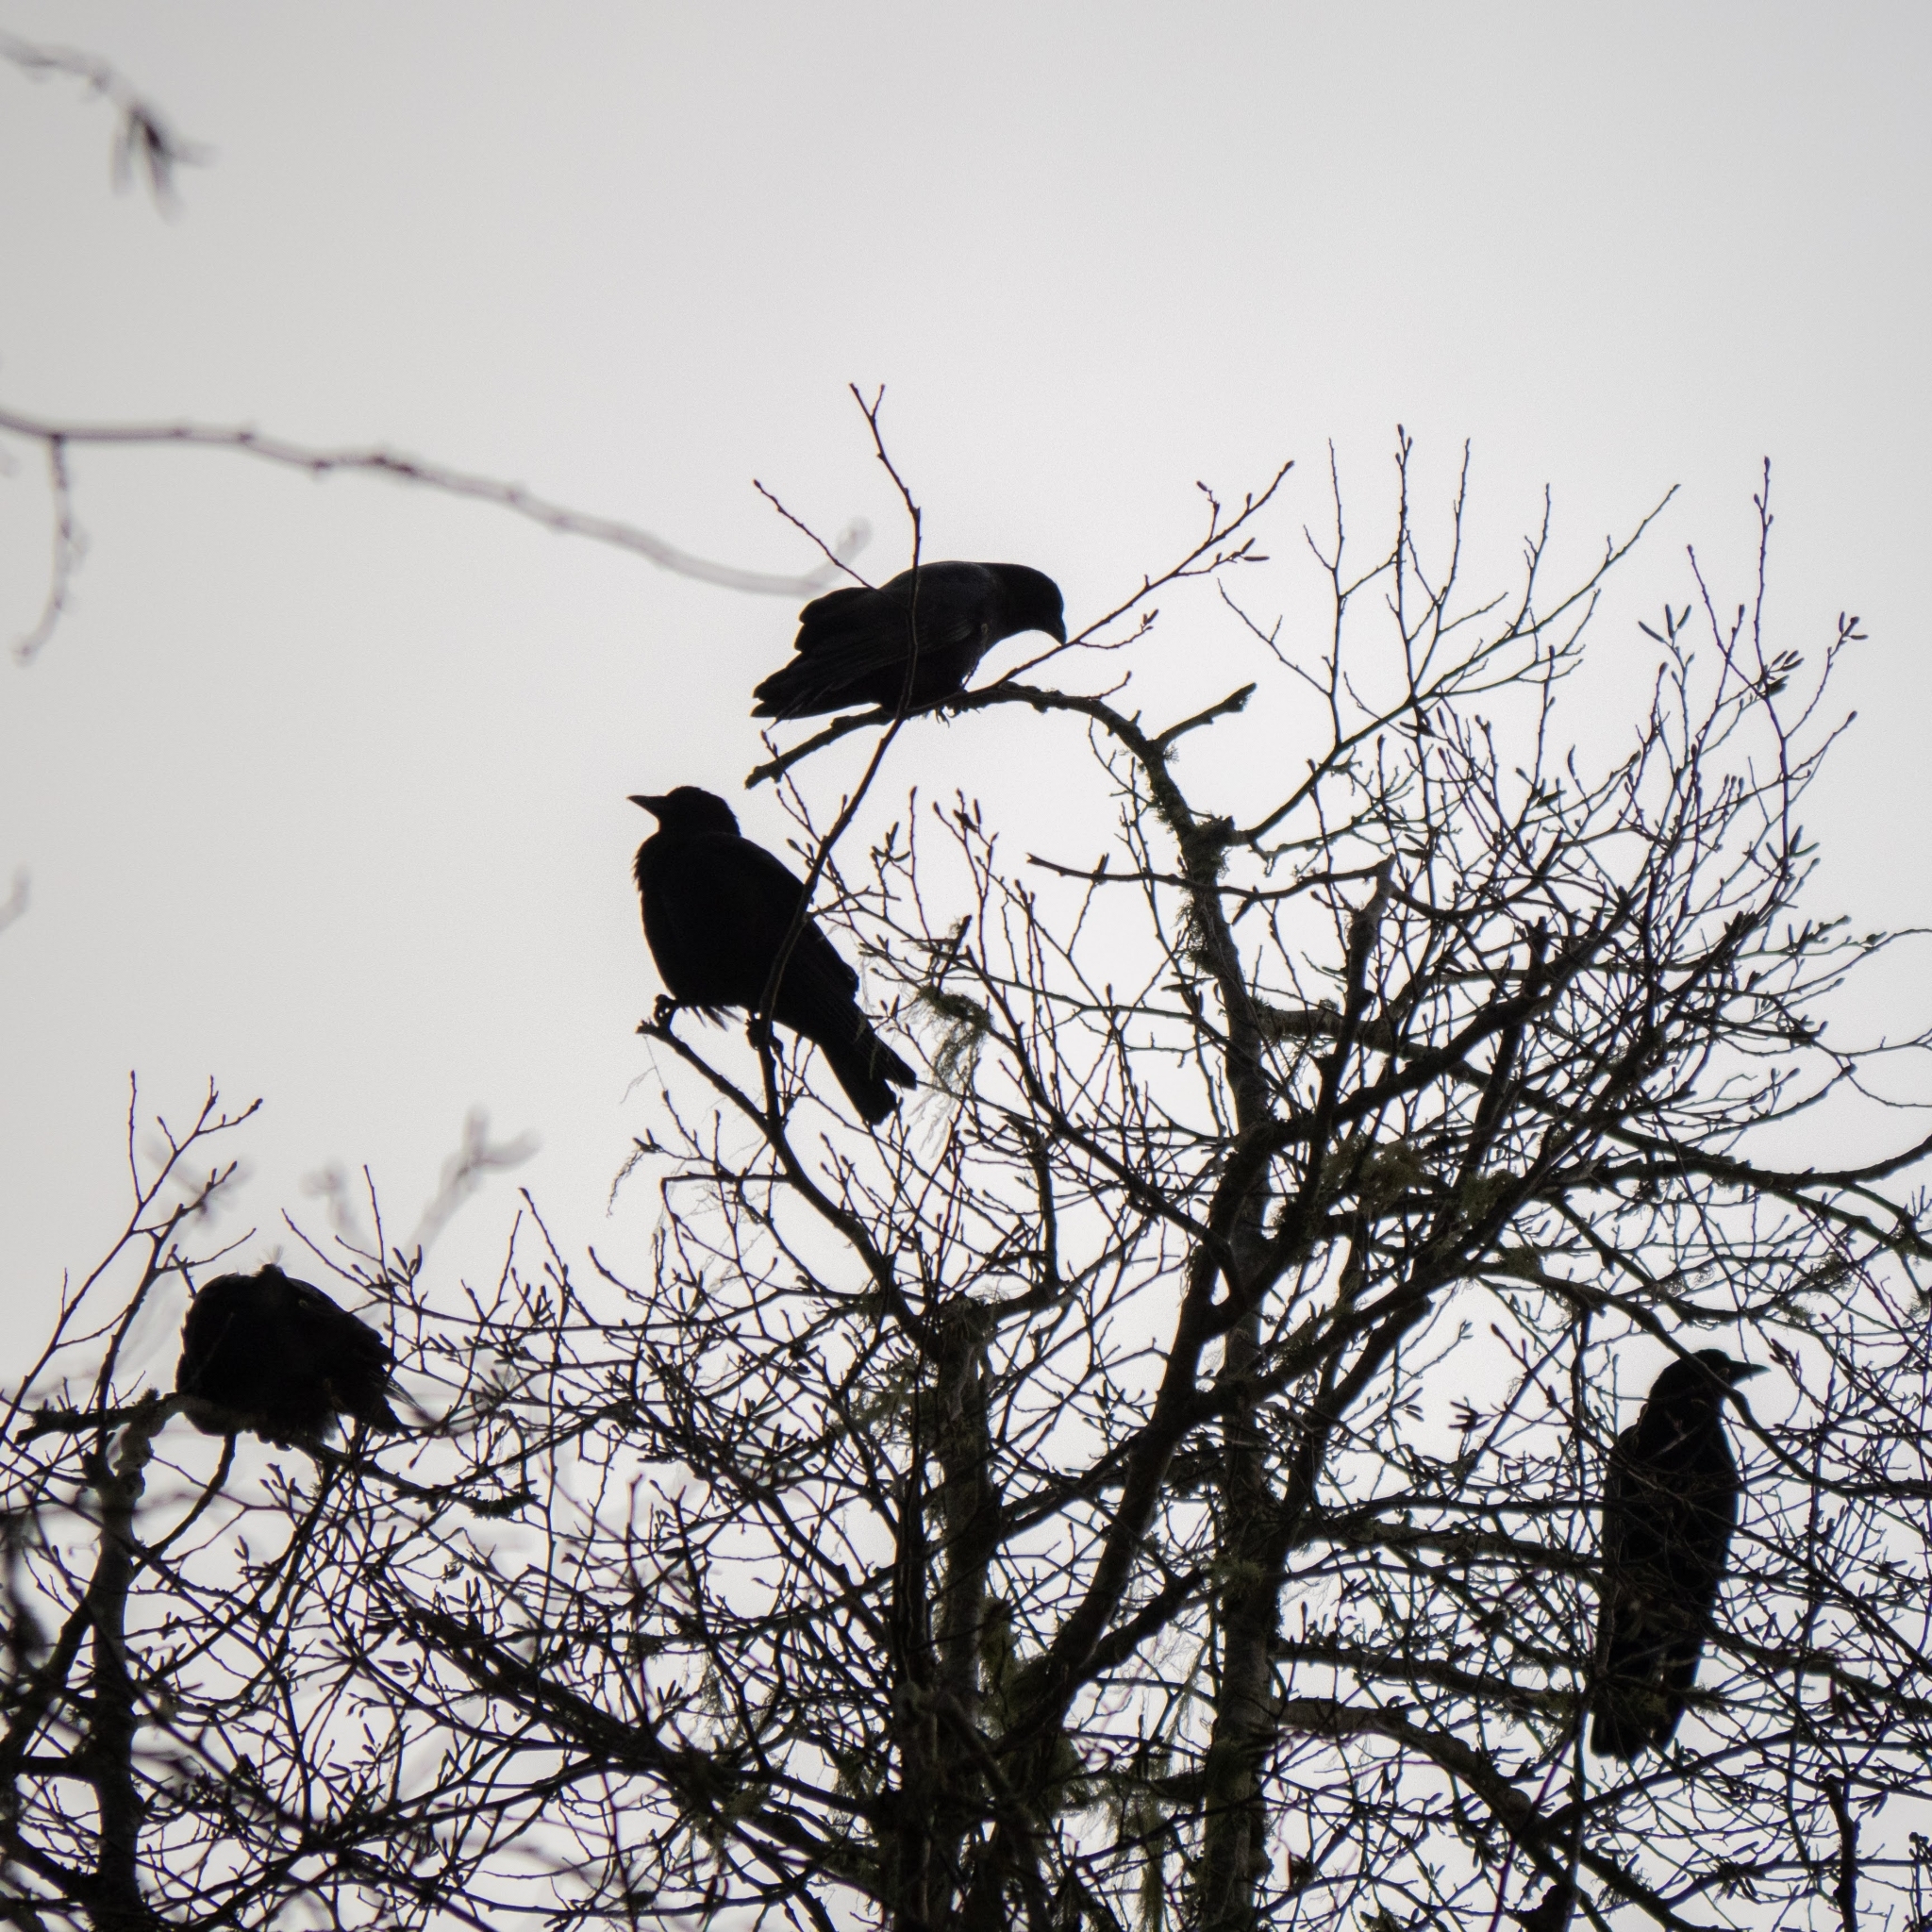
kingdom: Animalia
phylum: Chordata
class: Aves
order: Passeriformes
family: Corvidae
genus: Corvus
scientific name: Corvus brachyrhynchos
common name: American crow
